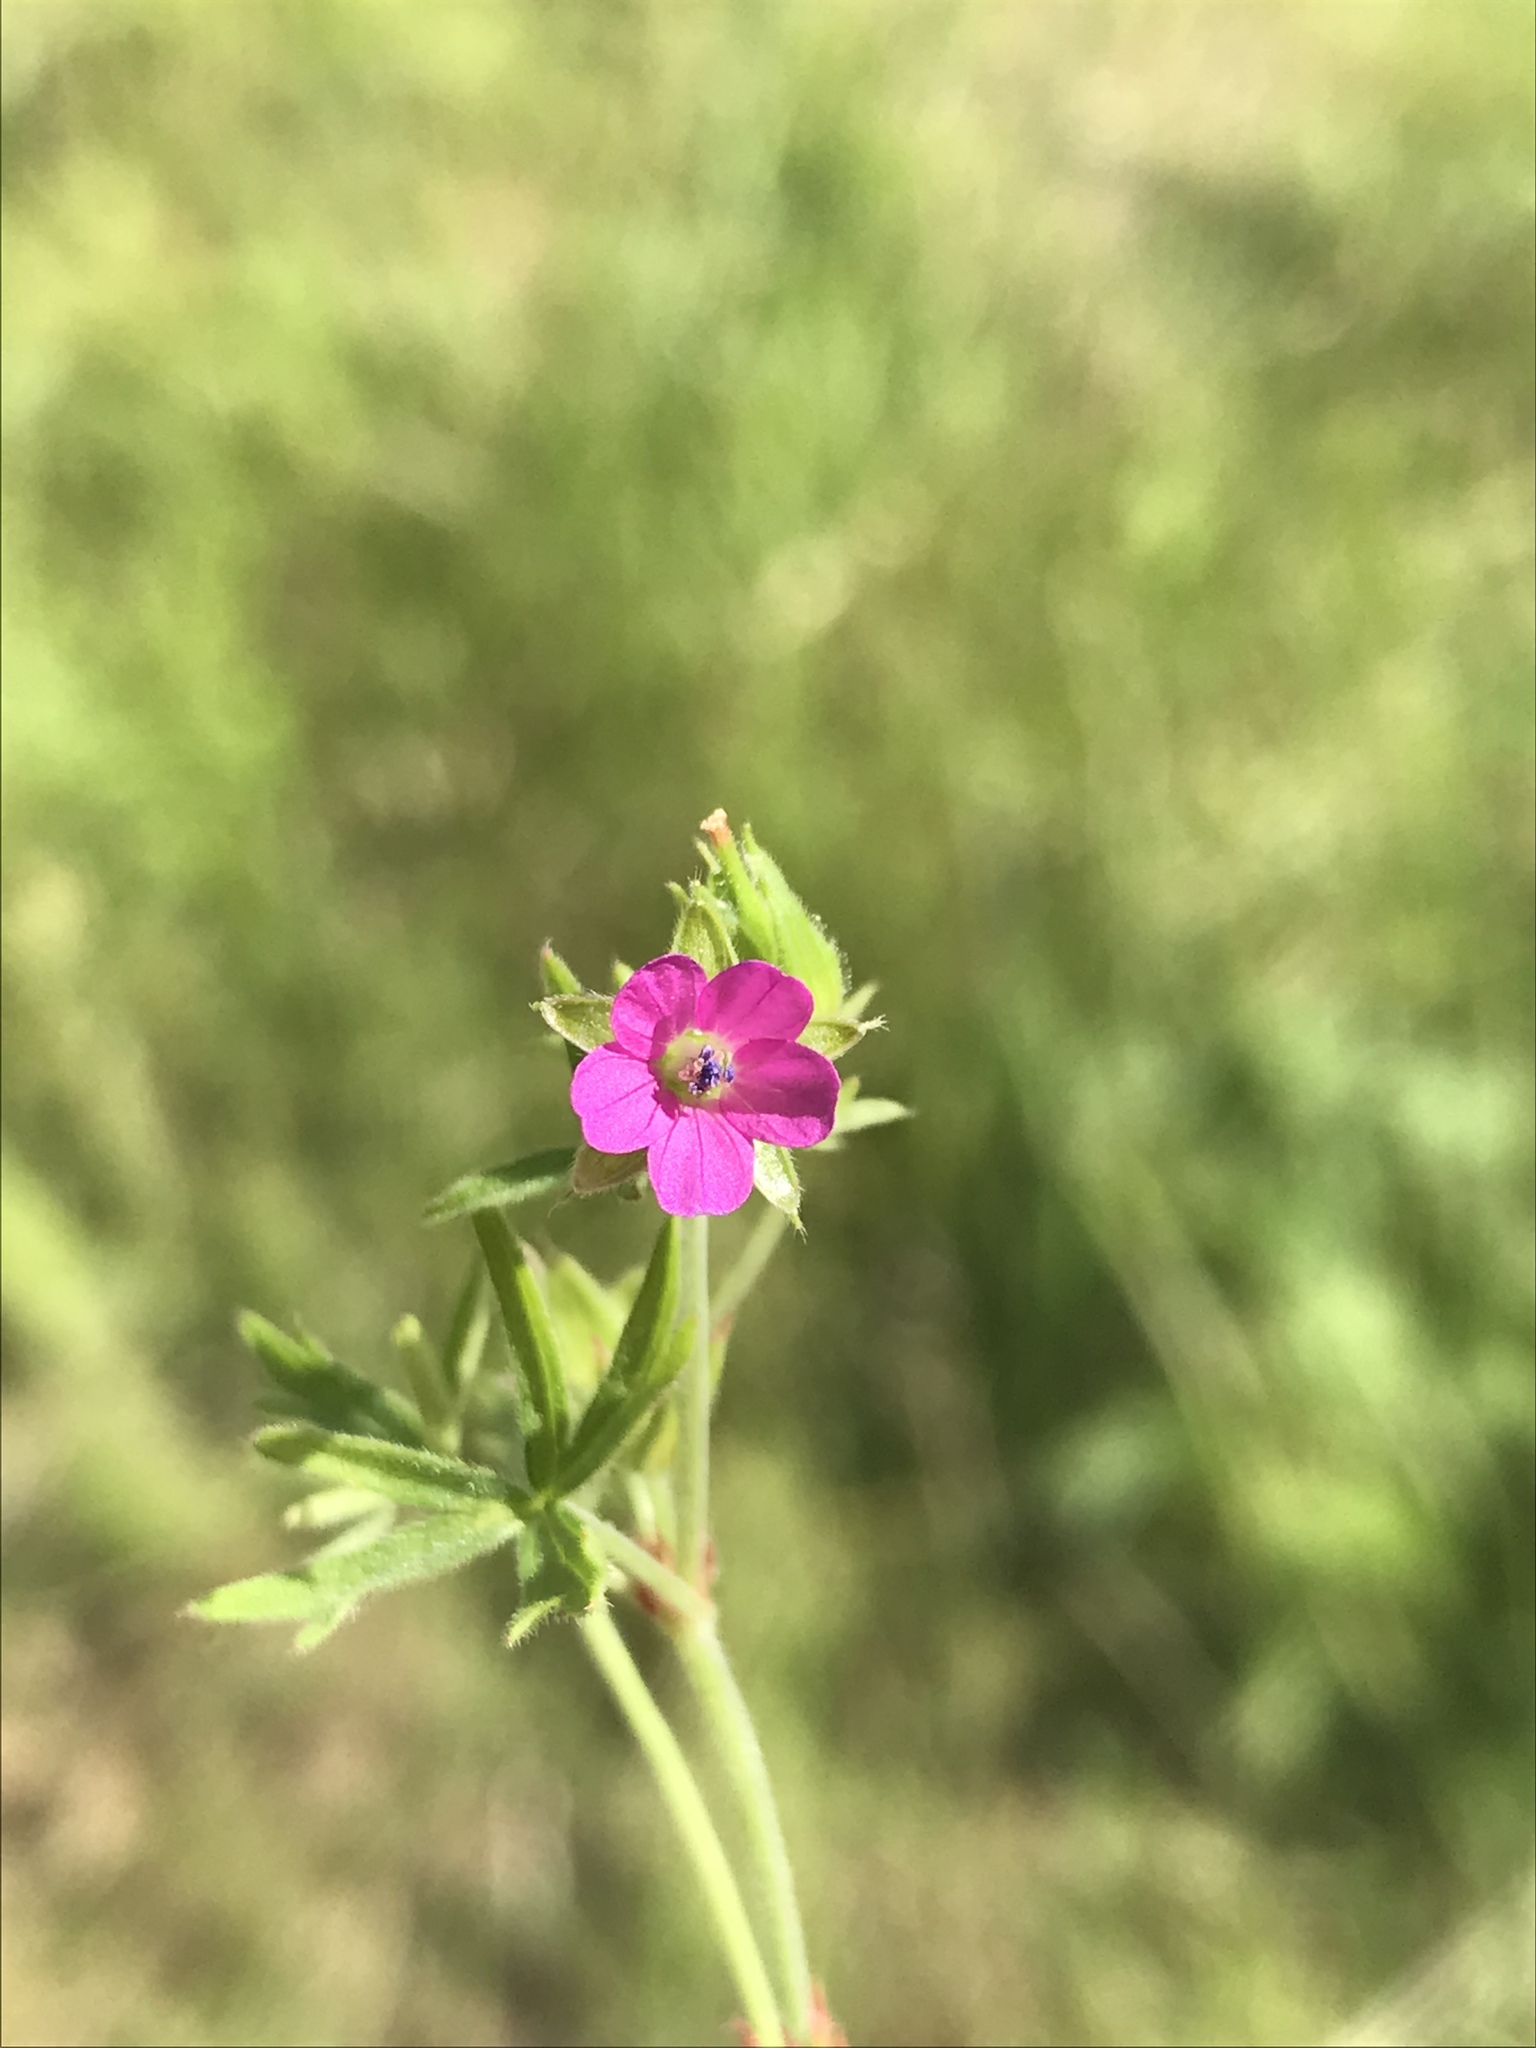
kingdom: Plantae
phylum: Tracheophyta
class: Magnoliopsida
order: Geraniales
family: Geraniaceae
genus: Geranium
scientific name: Geranium dissectum
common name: Cut-leaved crane's-bill
